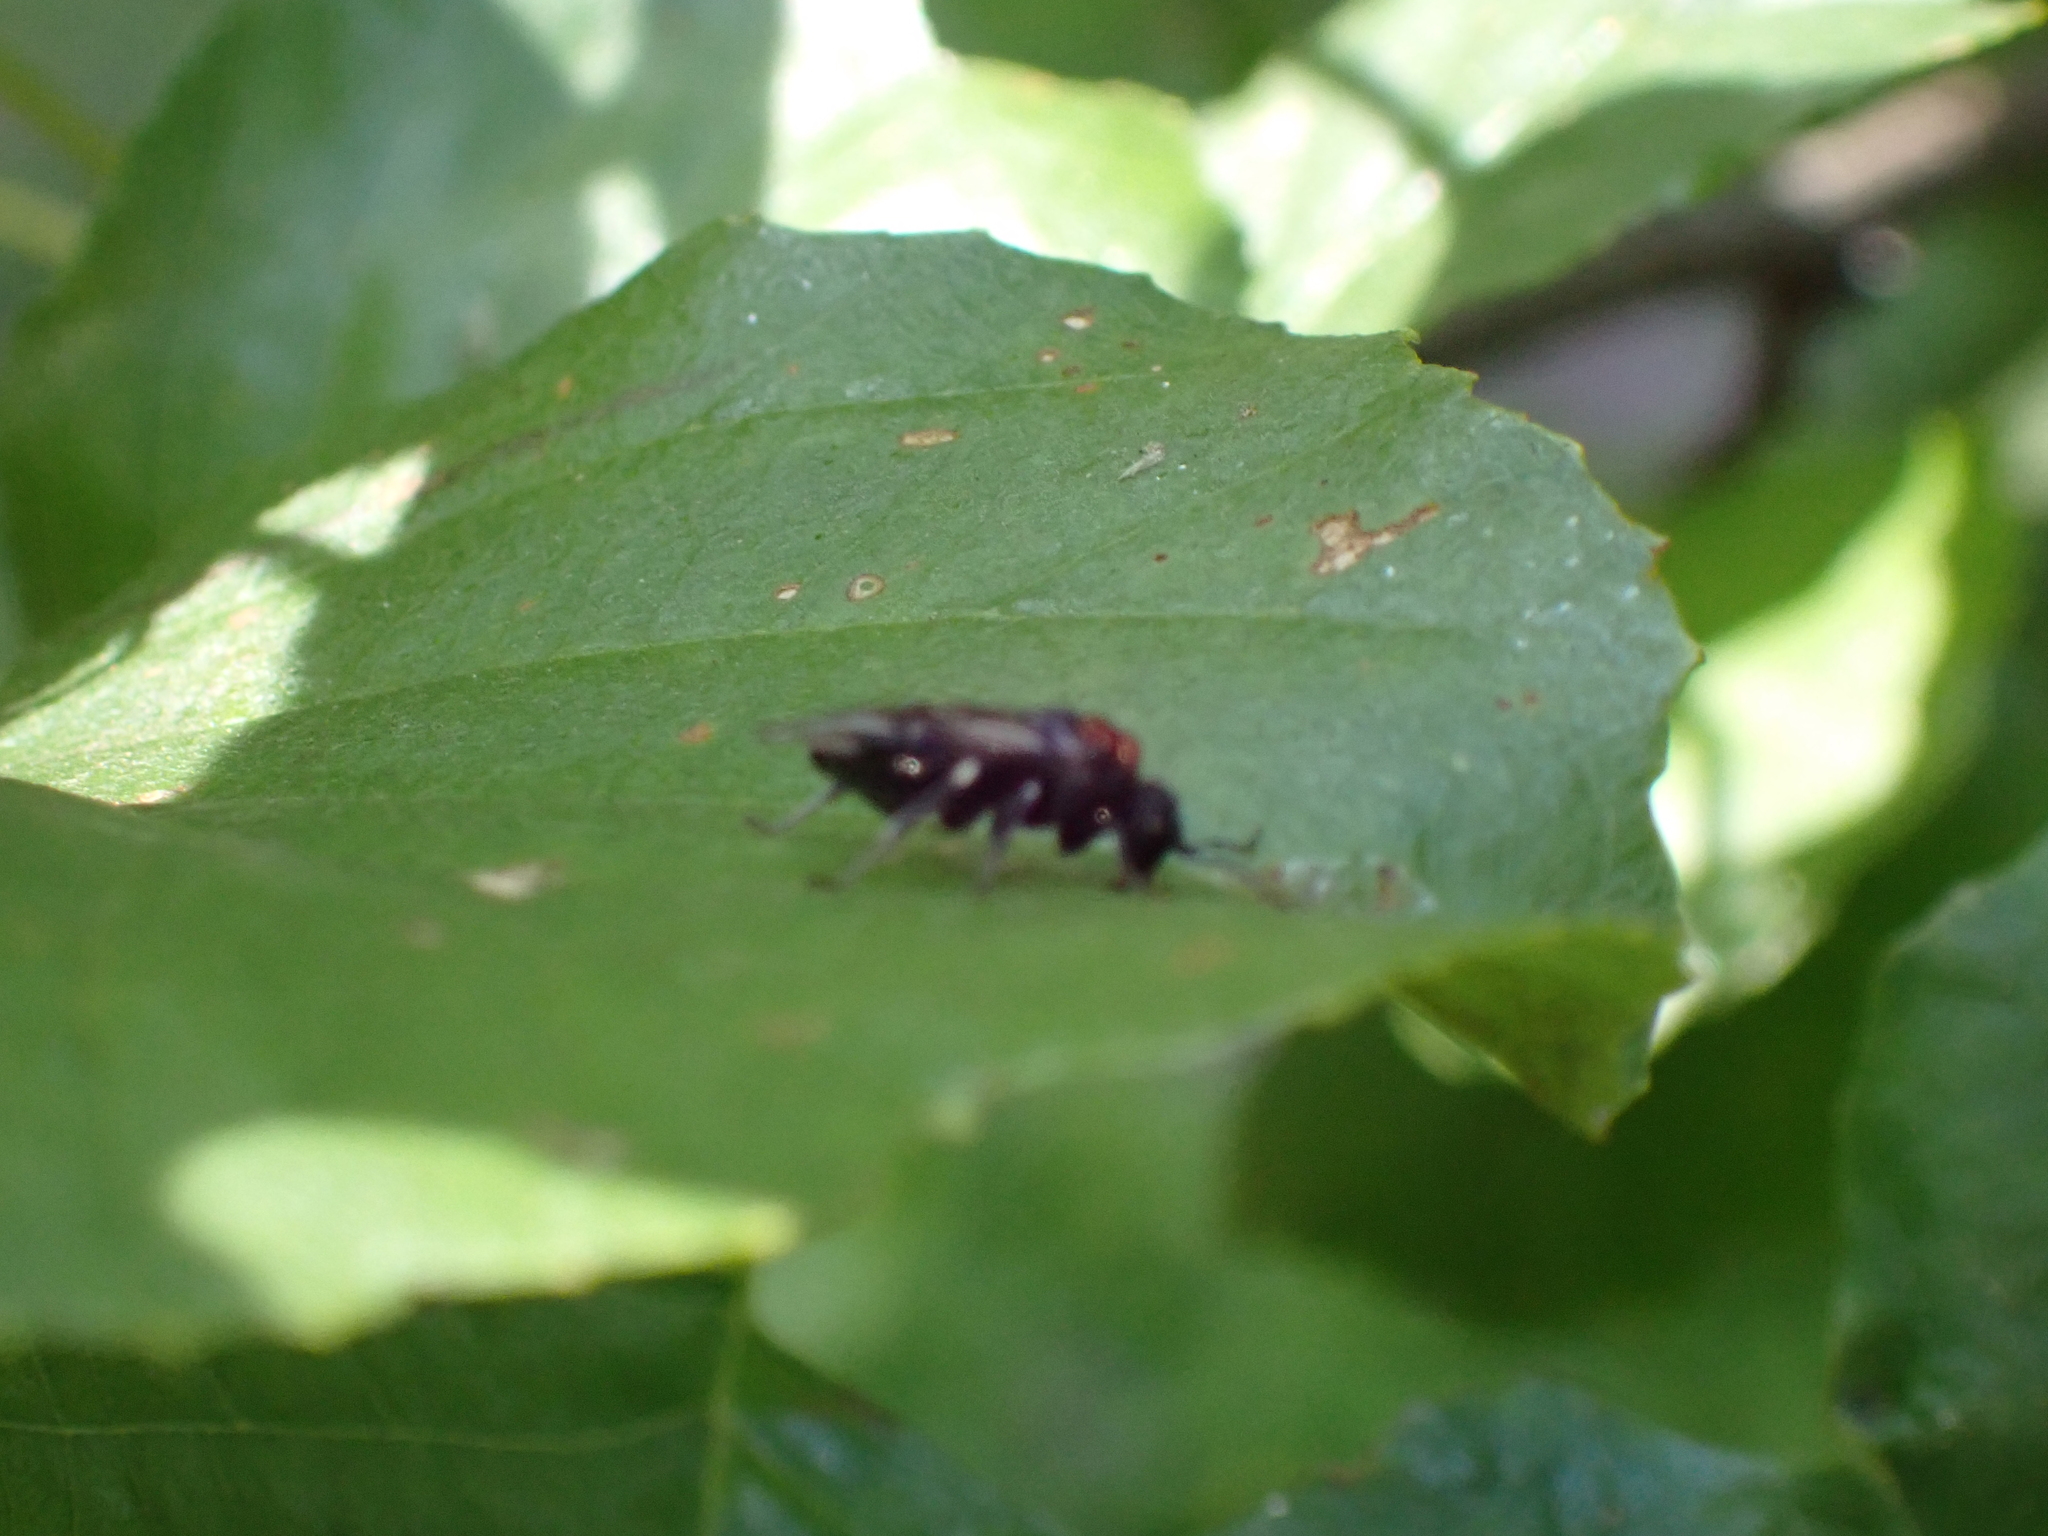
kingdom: Animalia
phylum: Arthropoda
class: Insecta
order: Hymenoptera
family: Tenthredinidae
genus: Eriocampa
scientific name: Eriocampa ovata
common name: Alder wooly sawfly
